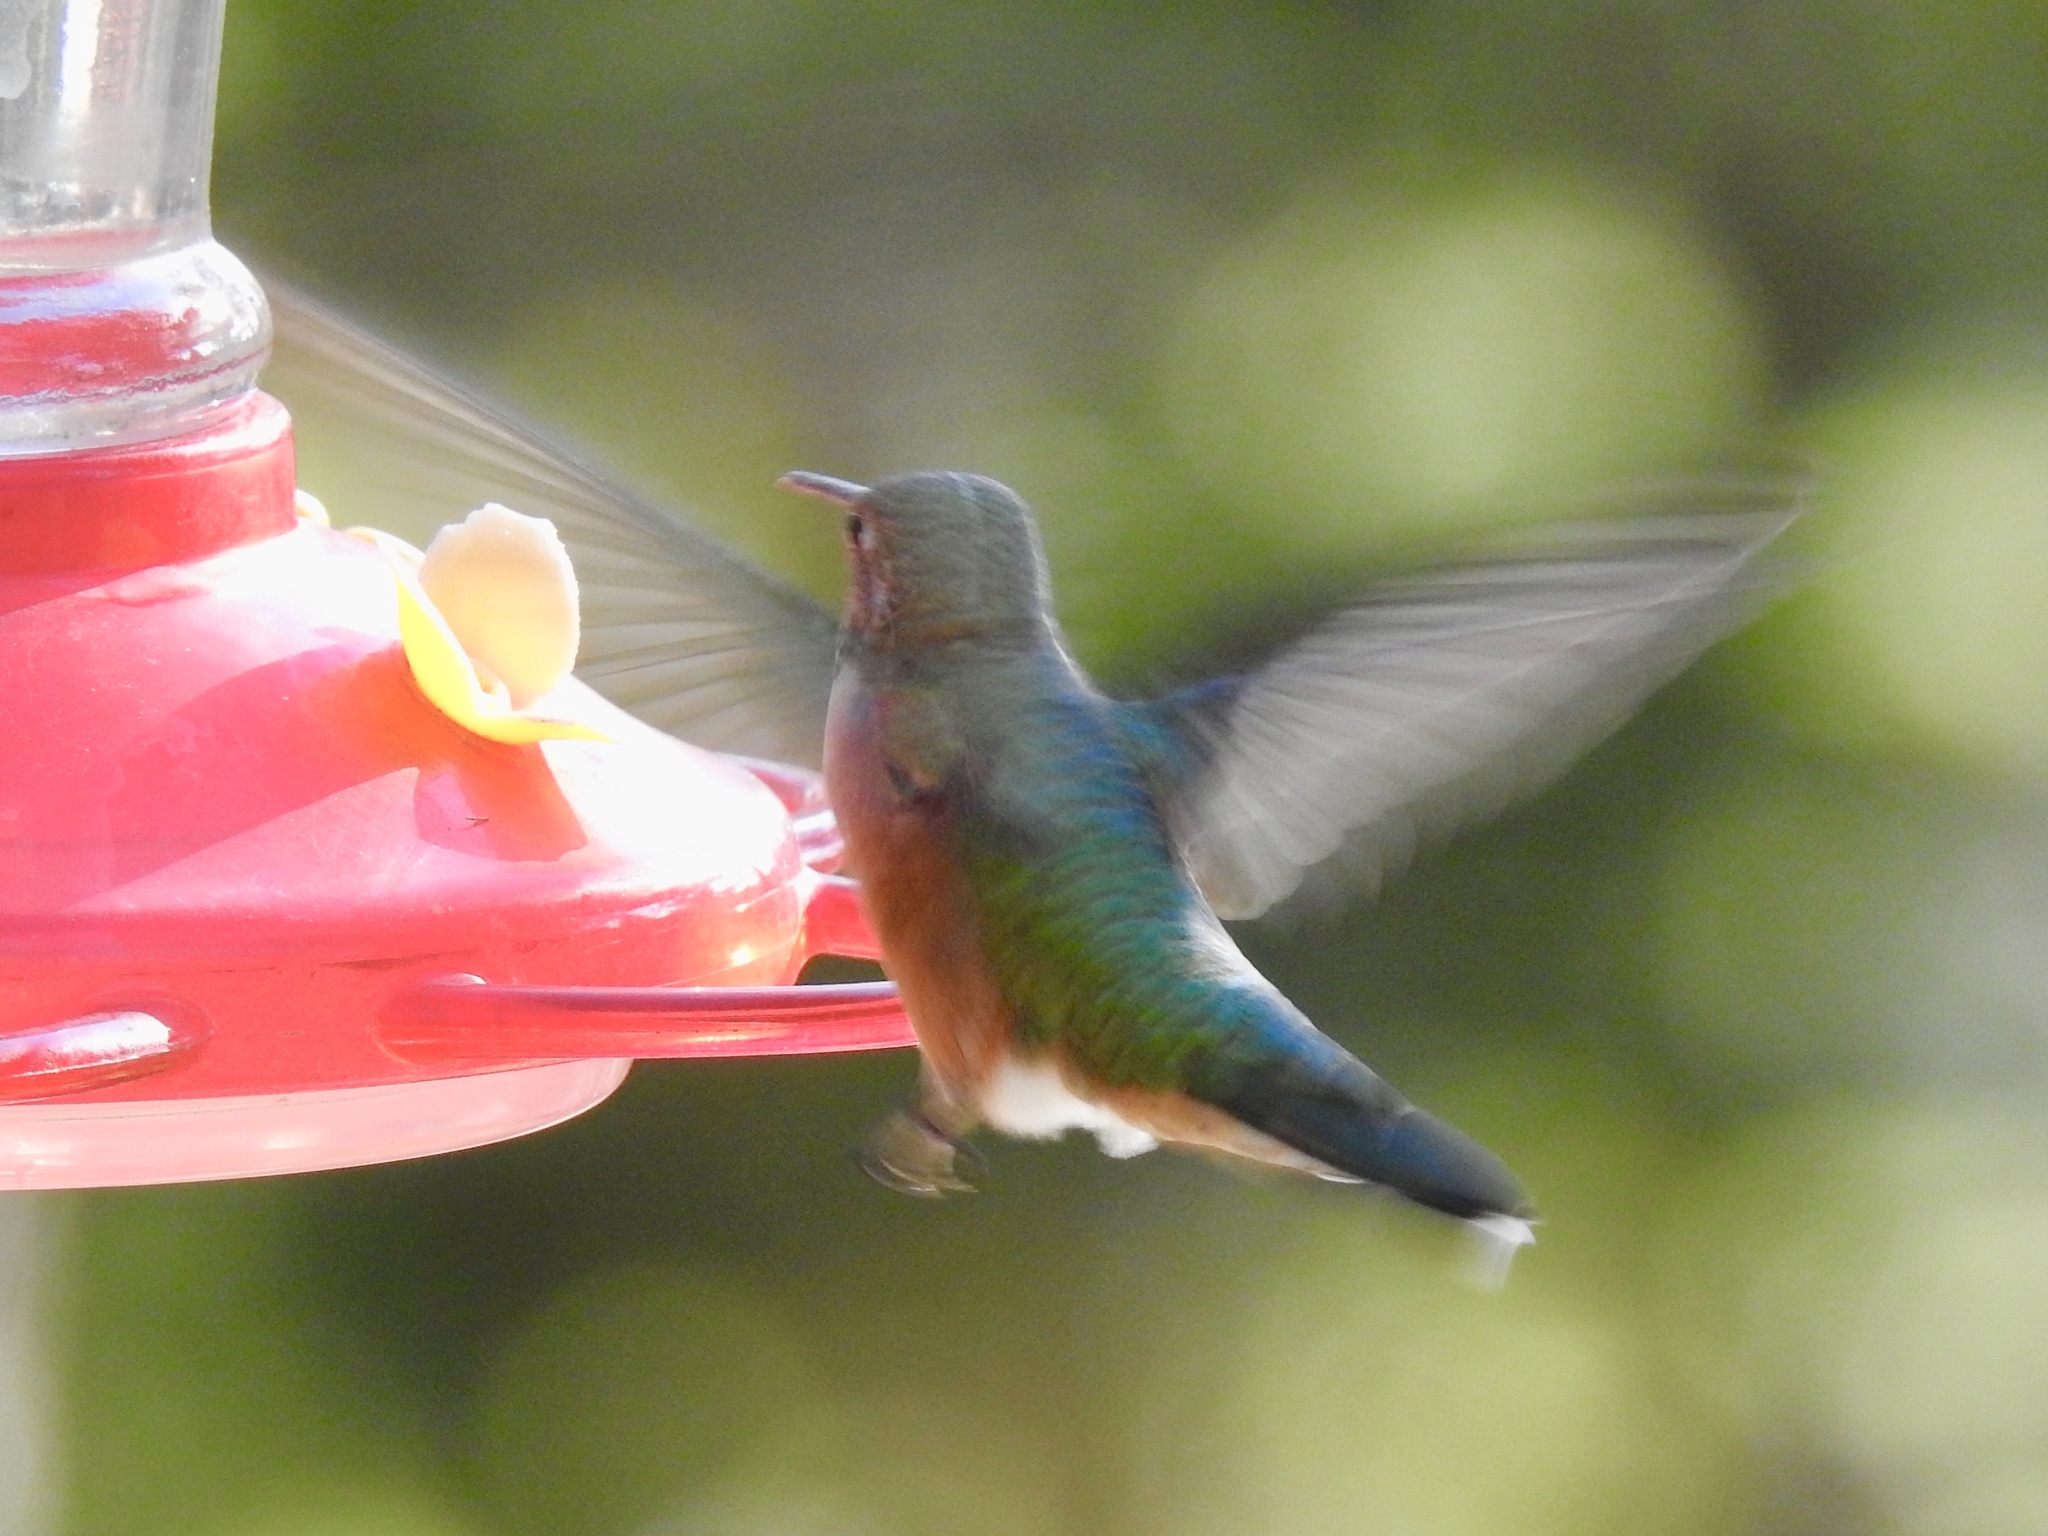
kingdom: Animalia
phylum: Chordata
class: Aves
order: Apodiformes
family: Trochilidae
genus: Selasphorus
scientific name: Selasphorus platycercus
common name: Broad-tailed hummingbird
